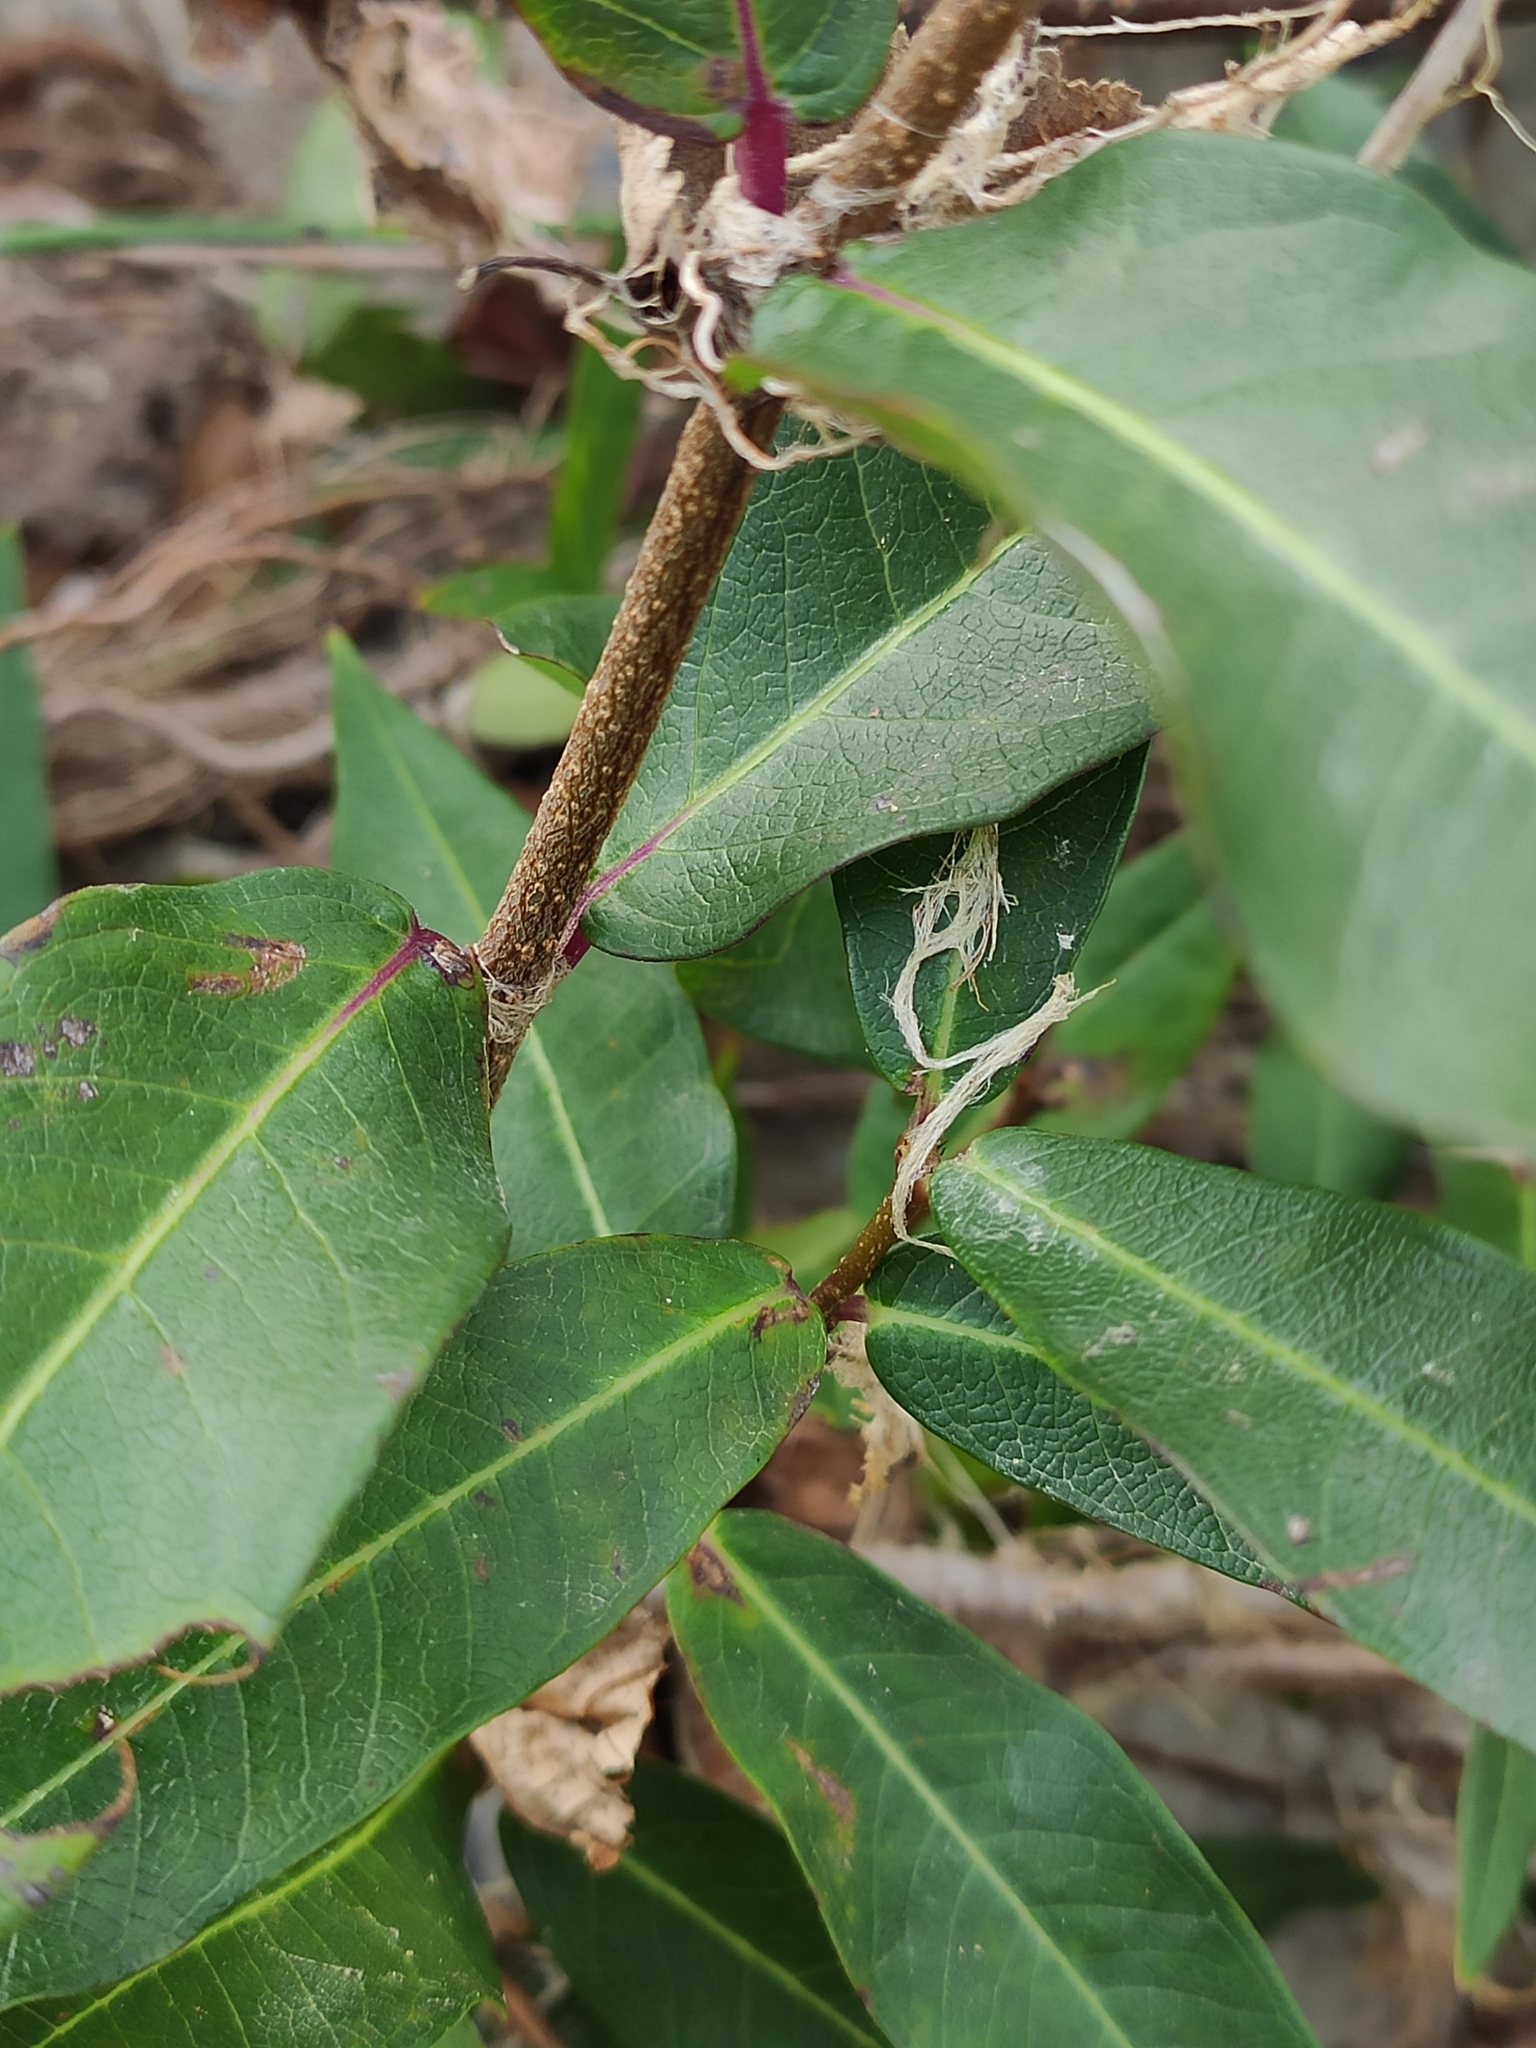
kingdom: Plantae
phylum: Tracheophyta
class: Magnoliopsida
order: Gentianales
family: Apocynaceae
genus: Periploca
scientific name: Periploca graeca
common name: Silkvine
